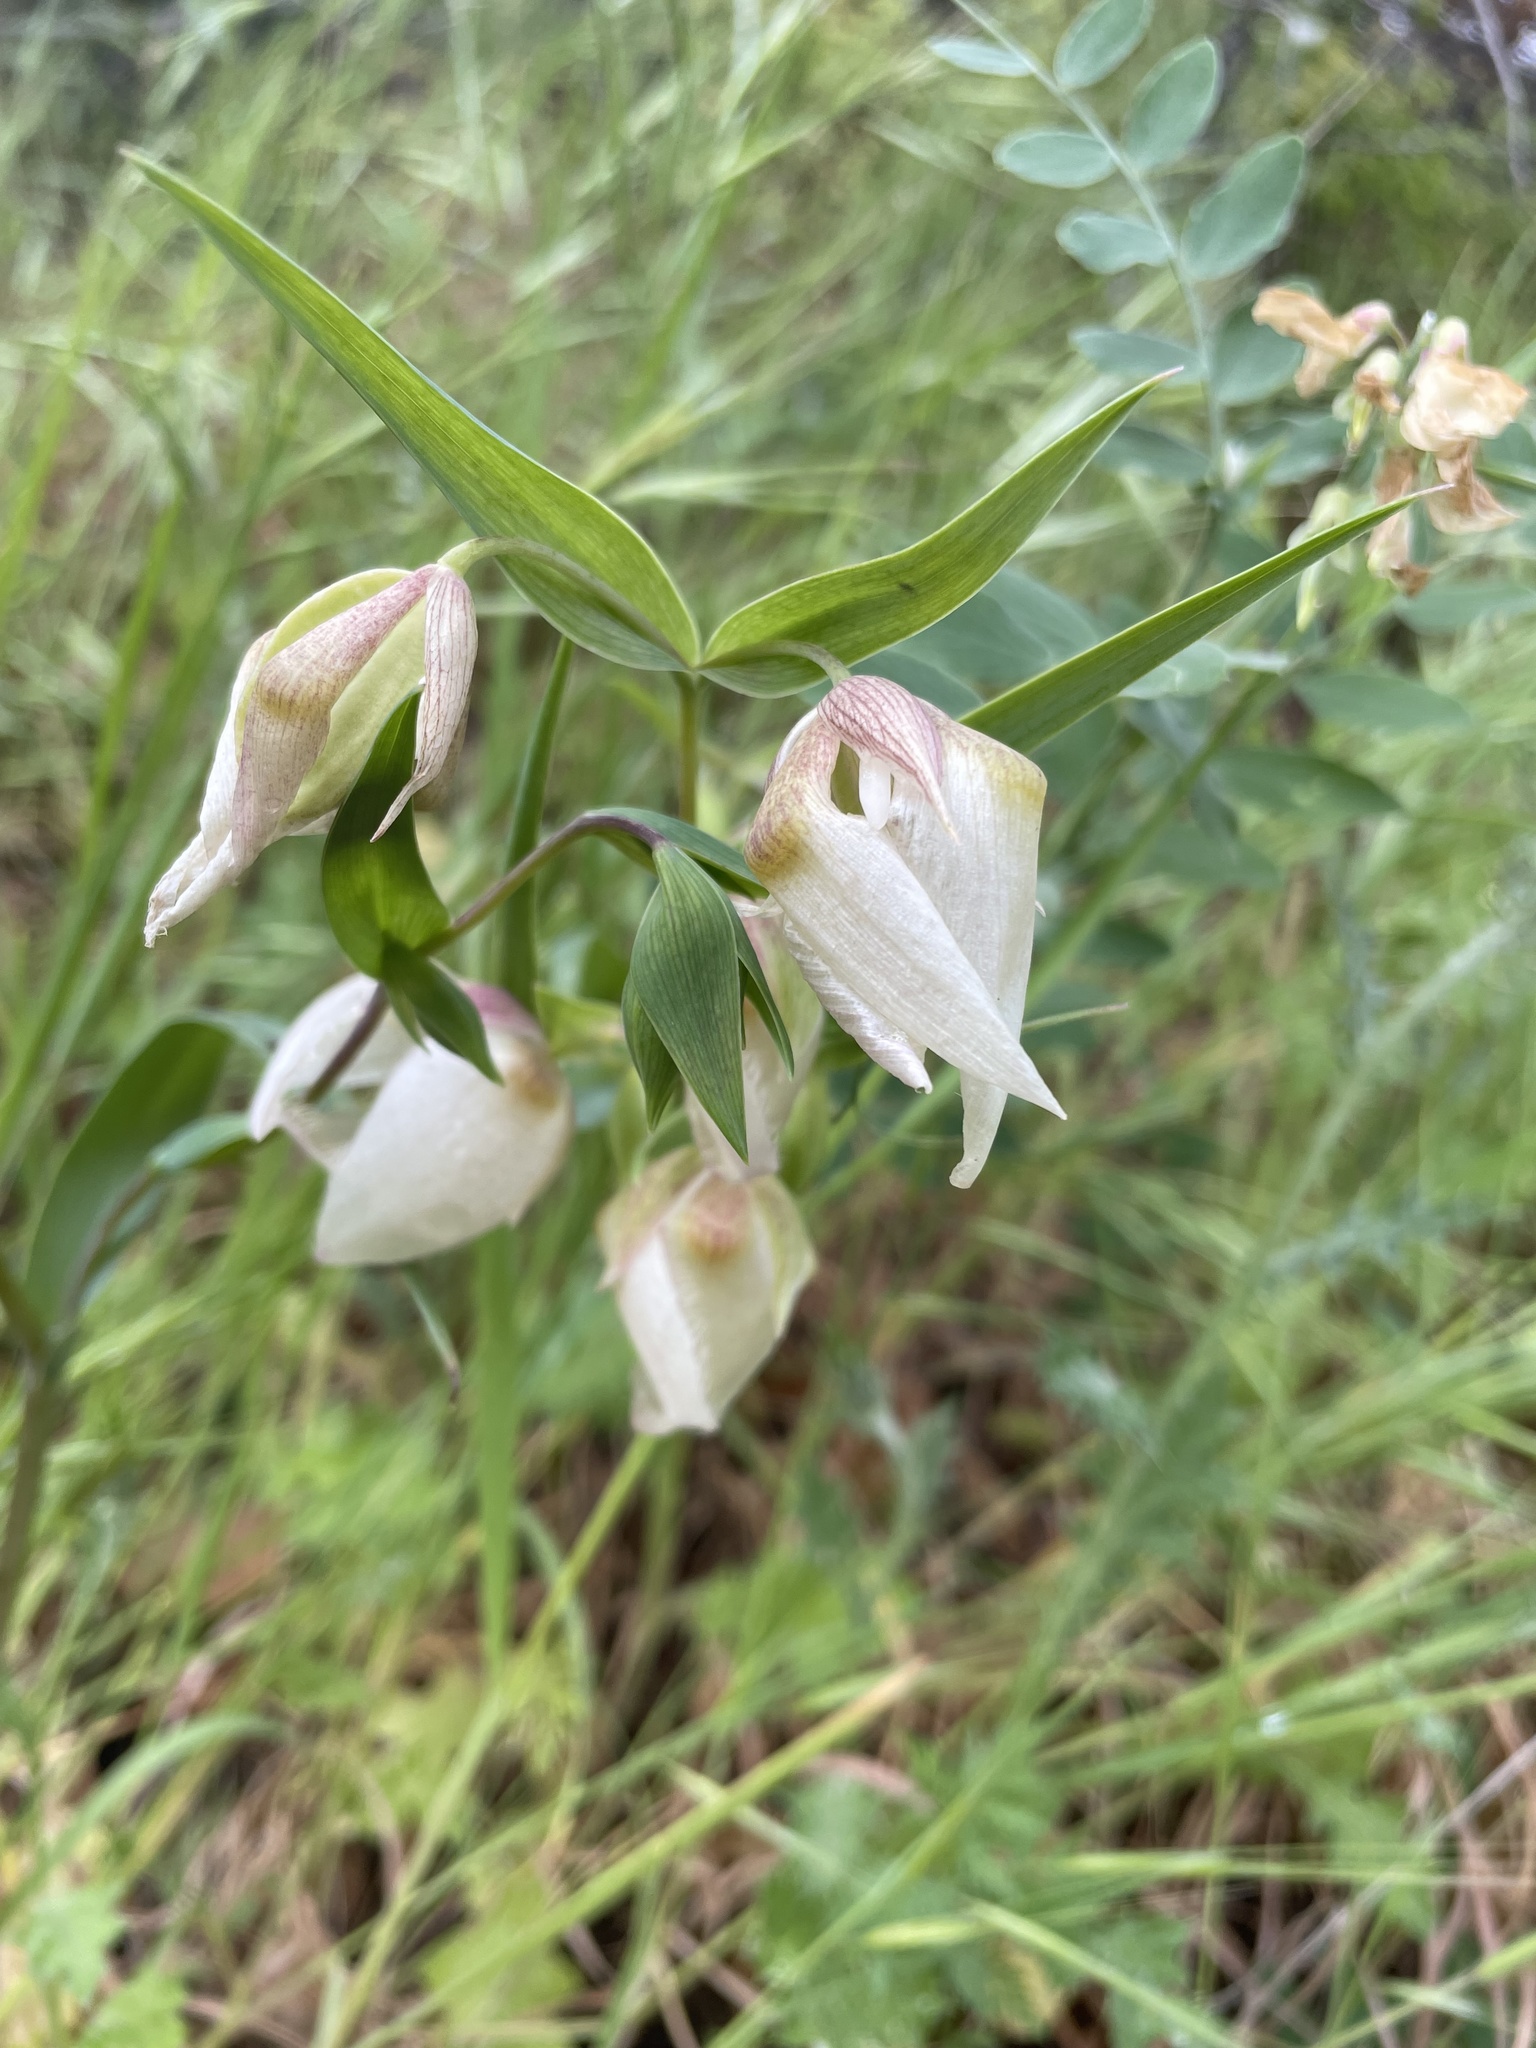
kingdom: Plantae
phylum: Tracheophyta
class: Liliopsida
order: Liliales
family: Liliaceae
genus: Calochortus
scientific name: Calochortus albus
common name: Fairy-lantern
